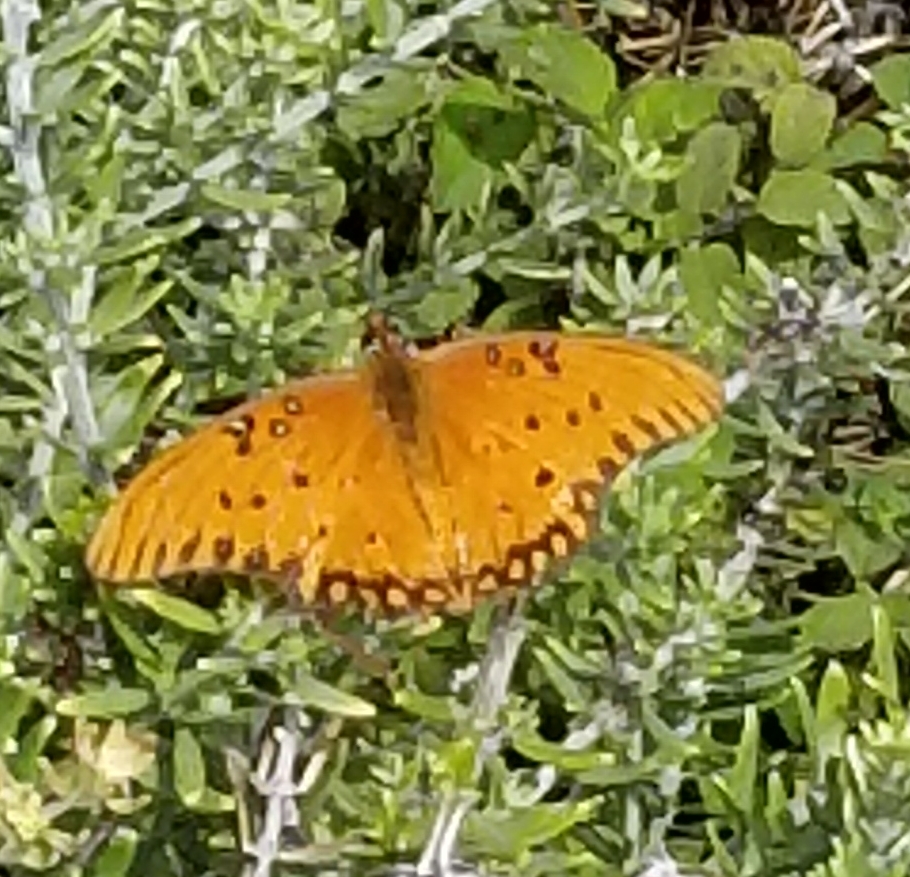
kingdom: Animalia
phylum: Arthropoda
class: Insecta
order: Lepidoptera
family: Nymphalidae
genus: Dione
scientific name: Dione vanillae
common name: Gulf fritillary
